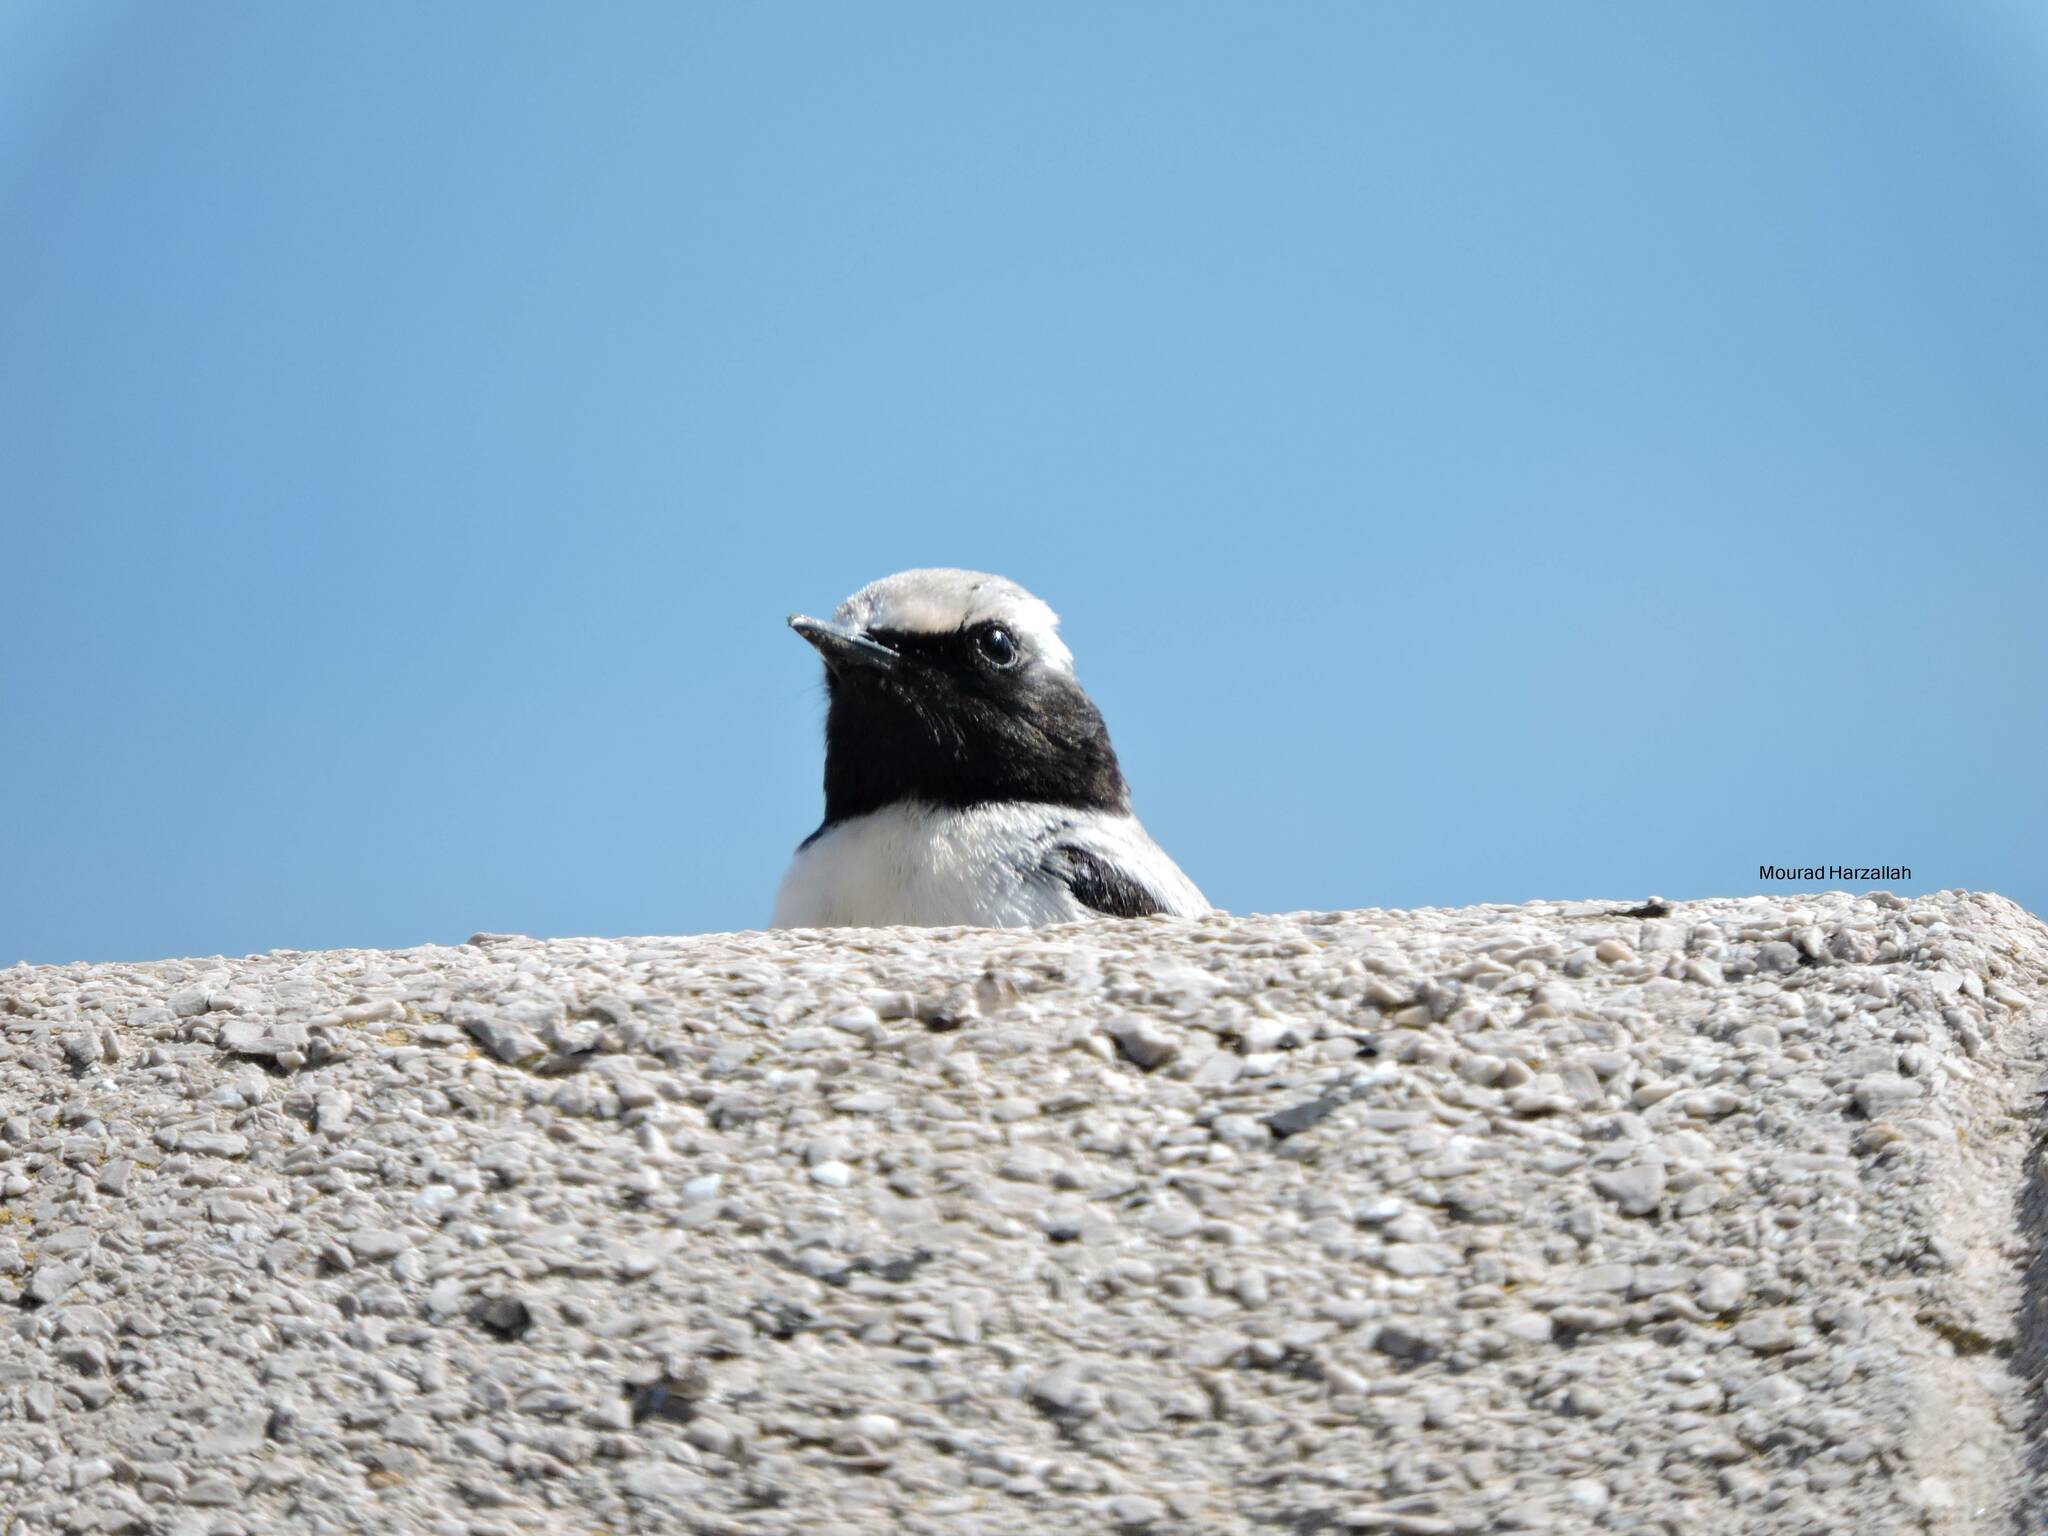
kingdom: Animalia
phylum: Chordata
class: Aves
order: Passeriformes
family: Muscicapidae
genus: Oenanthe
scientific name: Oenanthe oenanthe
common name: Northern wheatear
